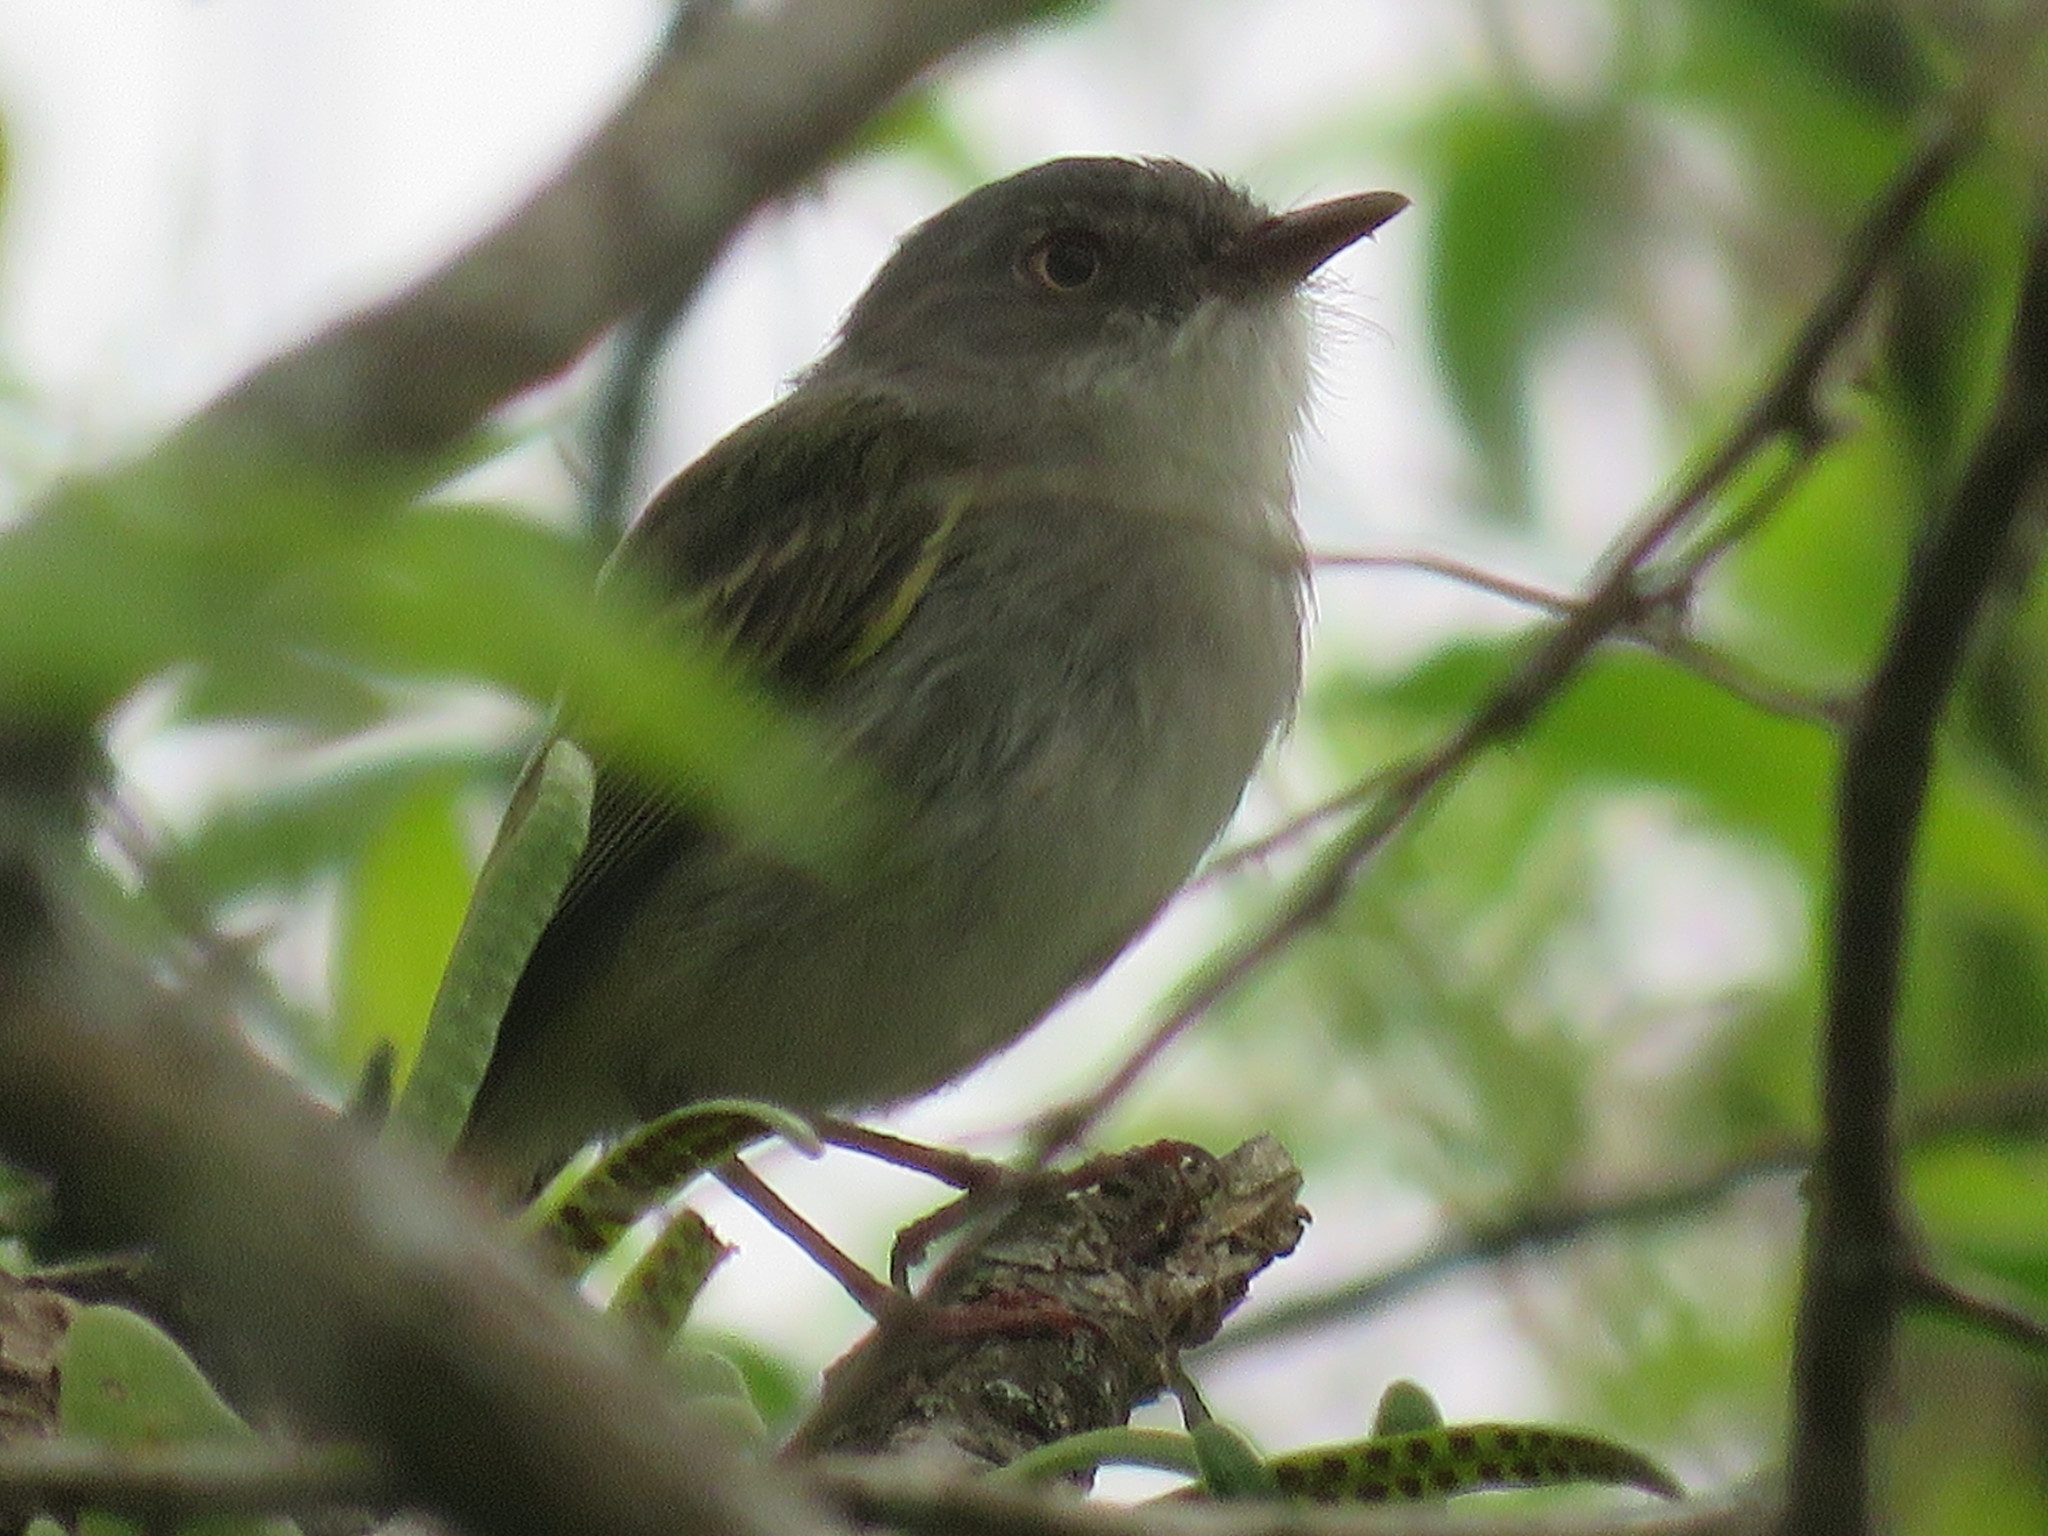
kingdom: Animalia
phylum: Chordata
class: Aves
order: Passeriformes
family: Tyrannidae
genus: Hemitriccus
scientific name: Hemitriccus margaritaceiventer
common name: Pearly-vented tody-tyrant
